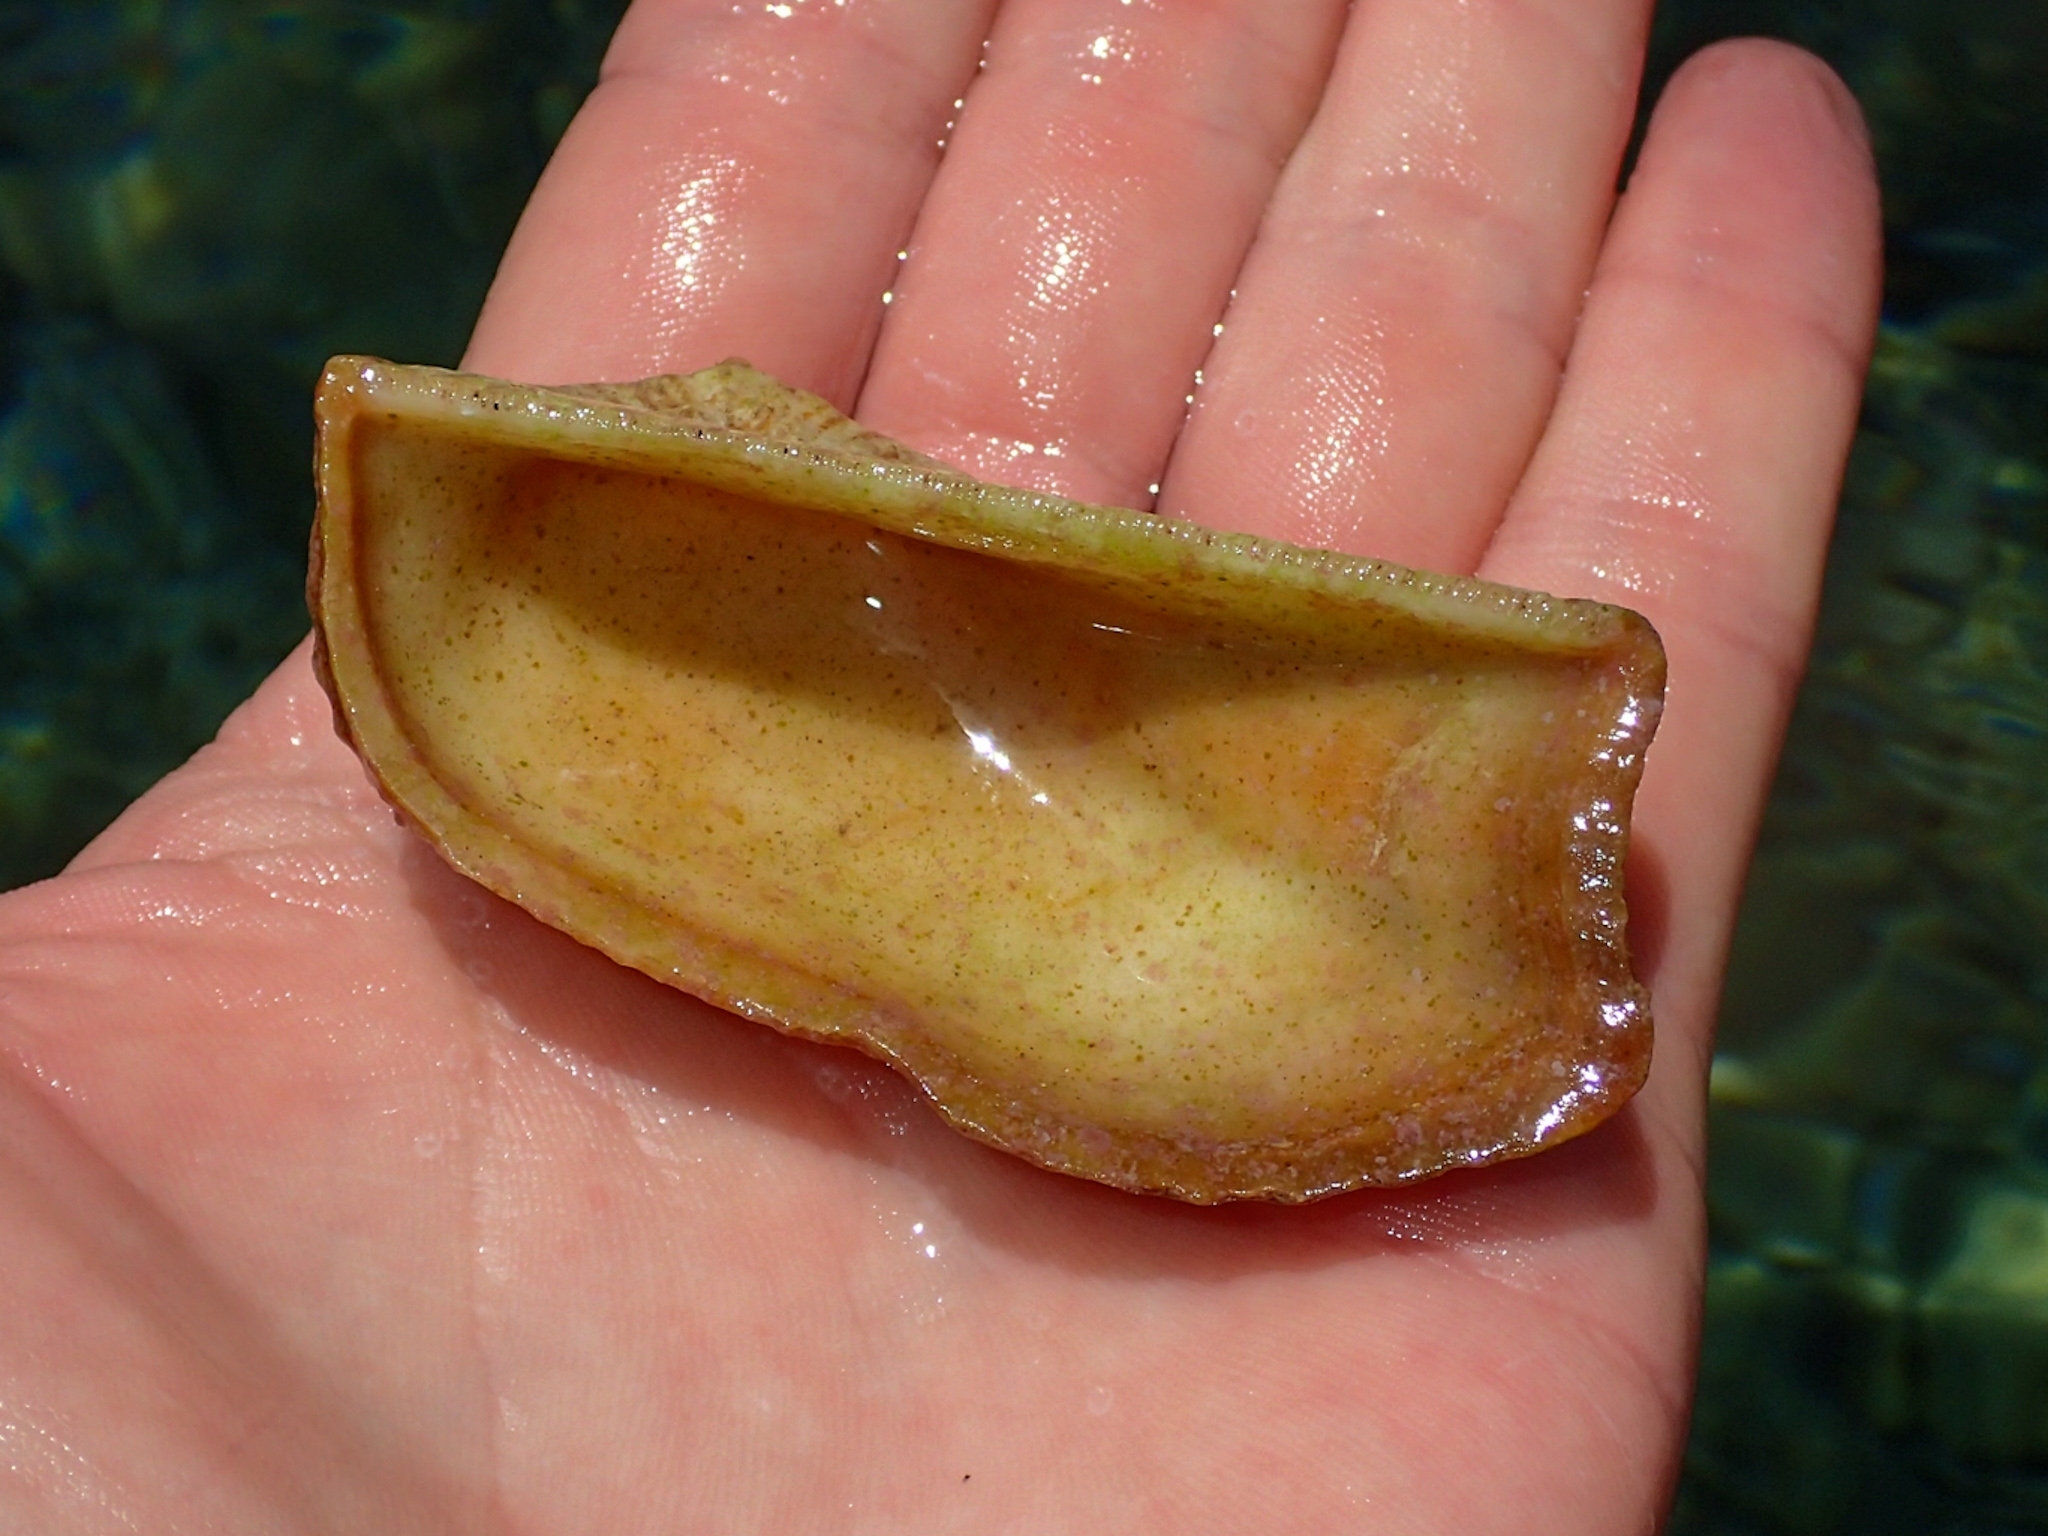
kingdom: Animalia
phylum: Mollusca
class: Bivalvia
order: Arcida
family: Arcidae
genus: Arca
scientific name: Arca zebra
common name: Atlantic turkey wing
